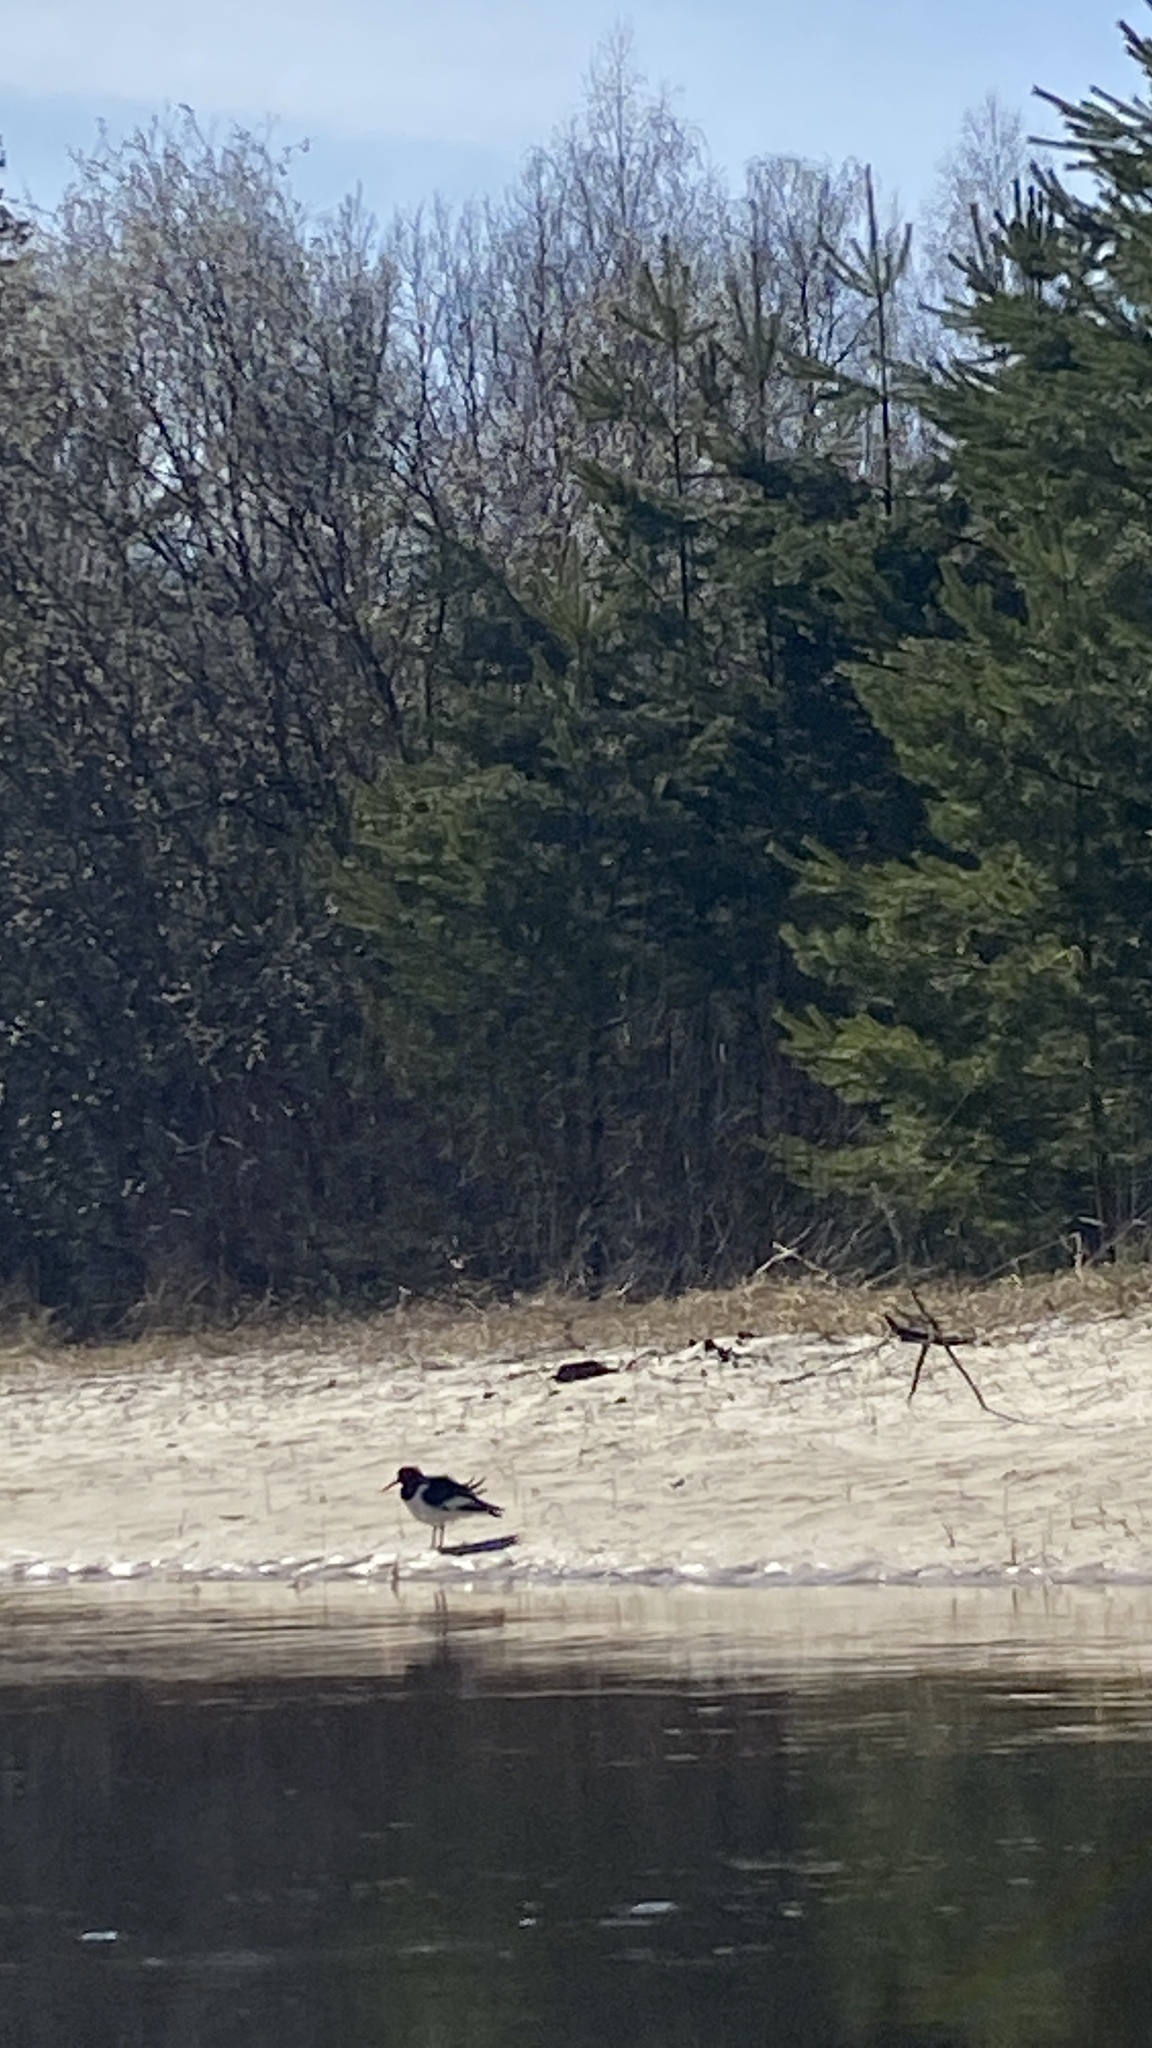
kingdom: Animalia
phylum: Chordata
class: Aves
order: Charadriiformes
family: Haematopodidae
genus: Haematopus
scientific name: Haematopus ostralegus
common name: Eurasian oystercatcher
